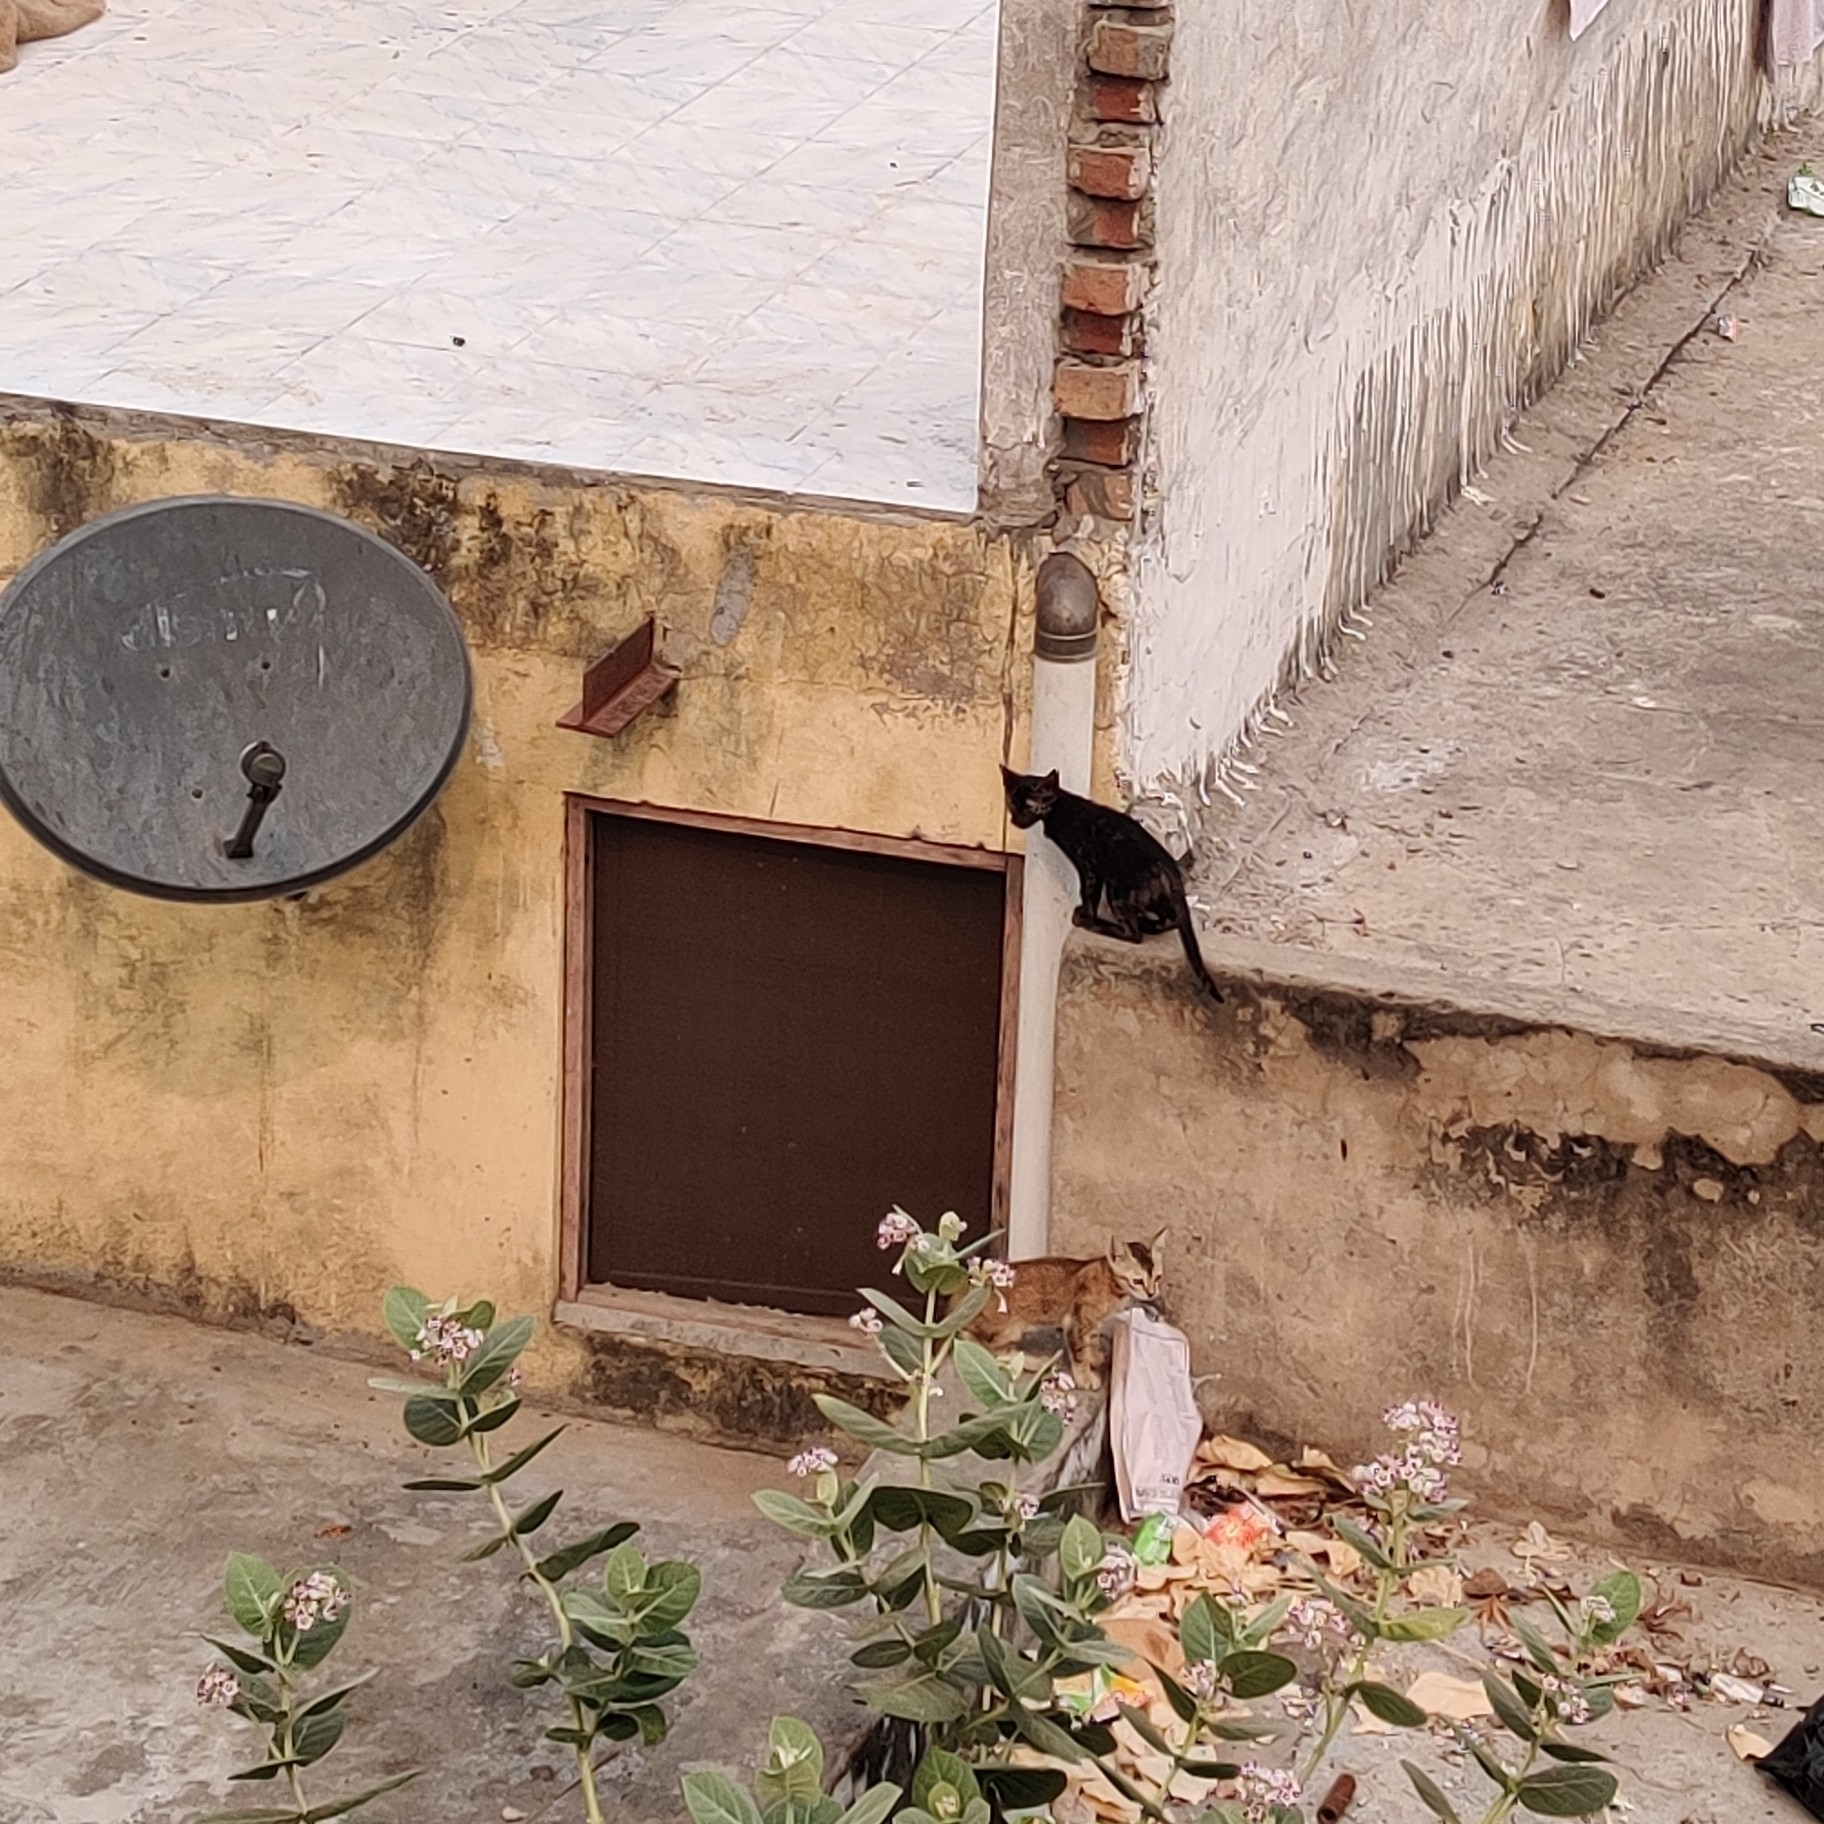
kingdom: Animalia
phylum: Chordata
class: Mammalia
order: Carnivora
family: Felidae
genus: Felis
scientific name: Felis catus
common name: Domestic cat
